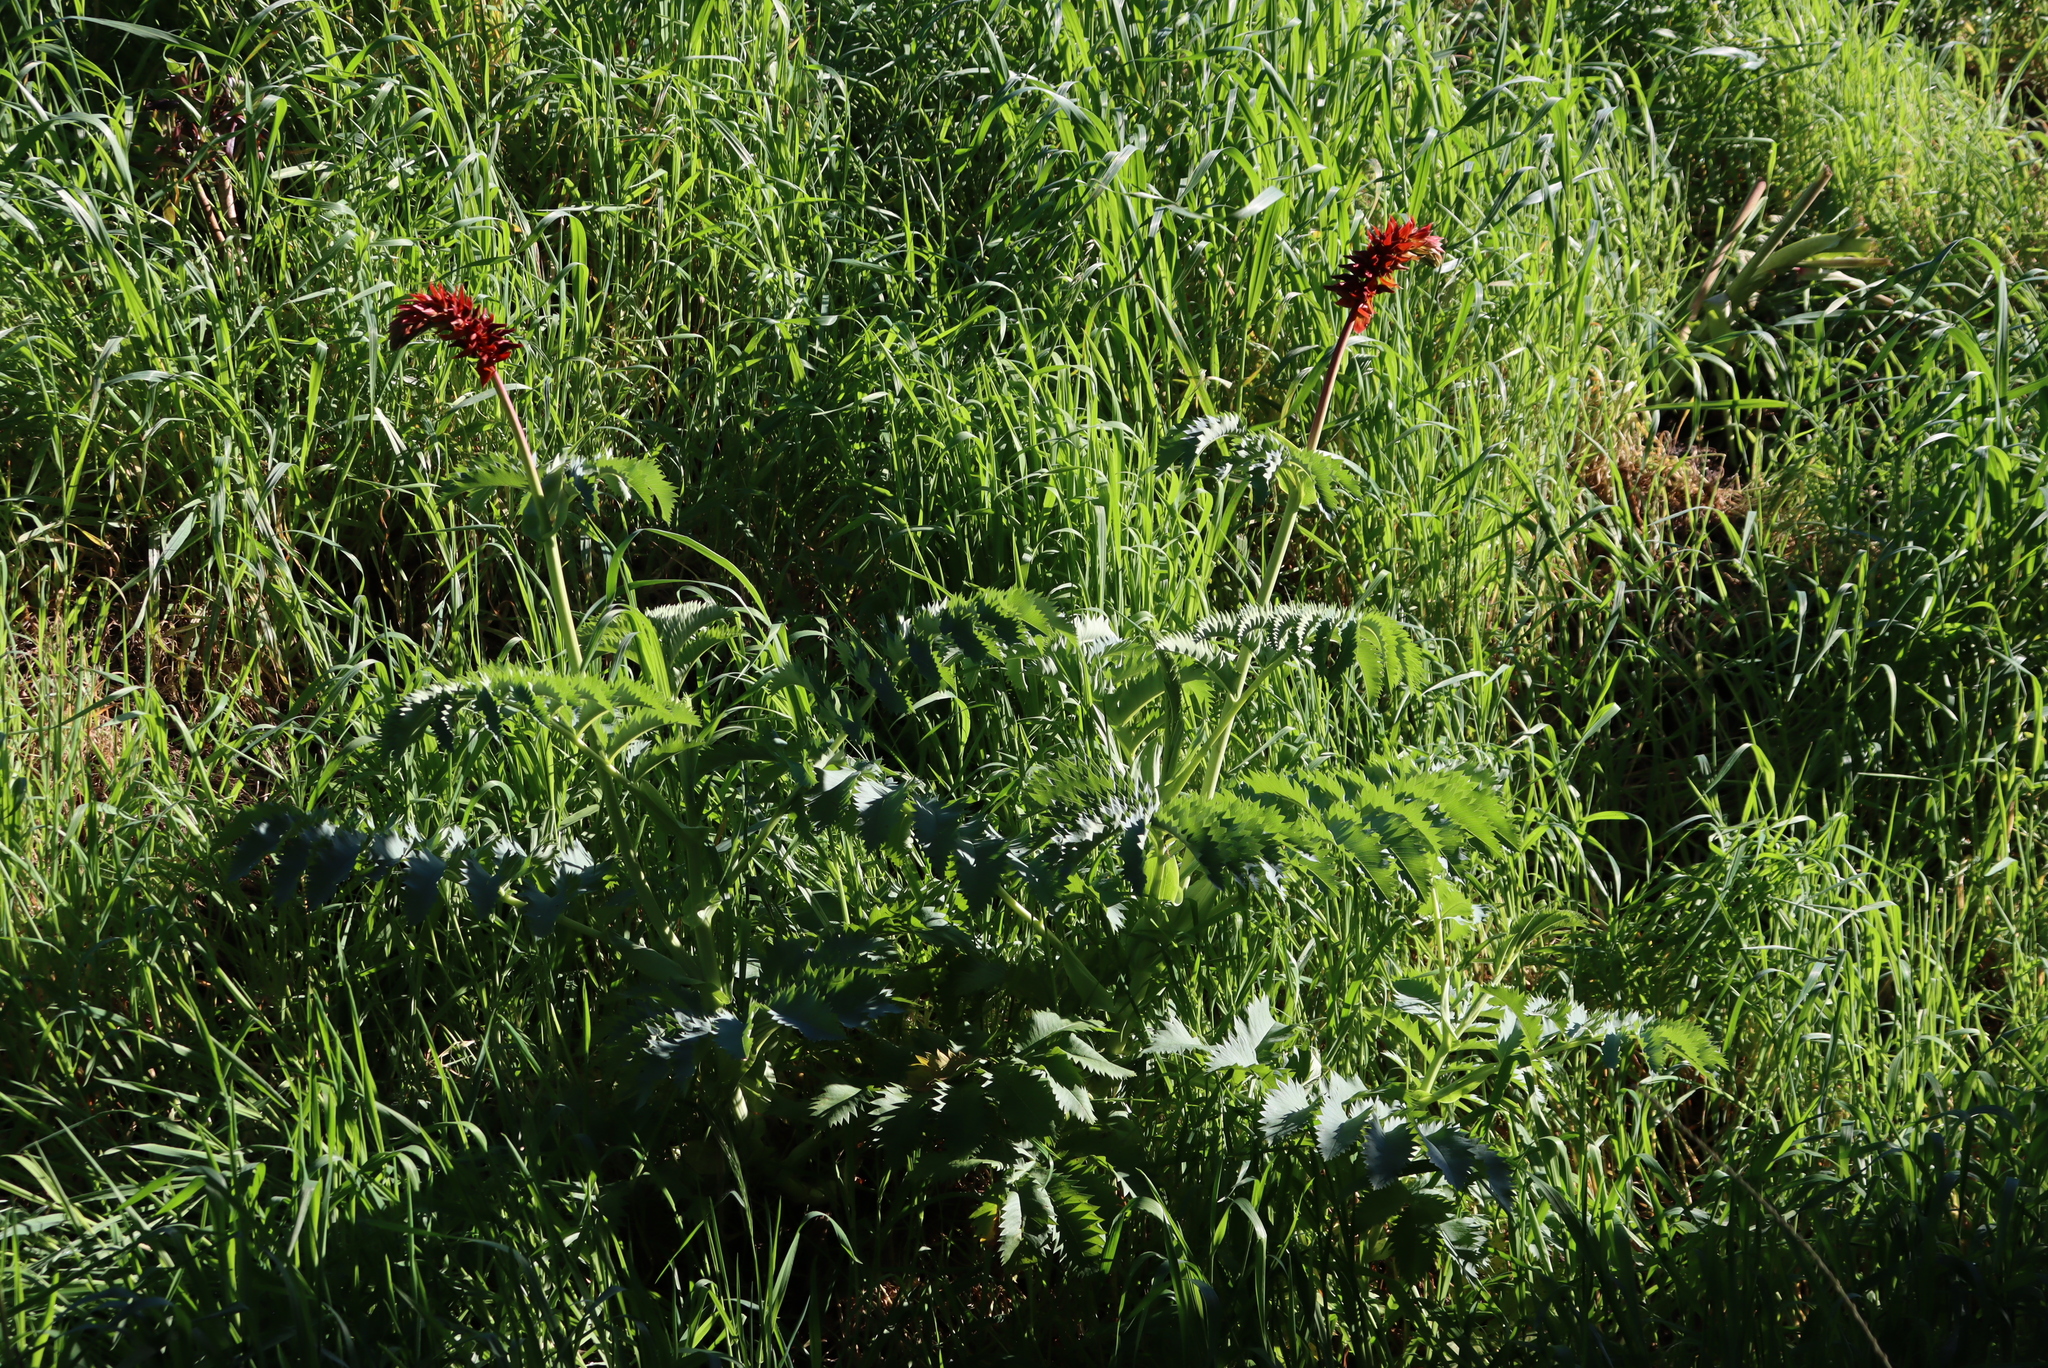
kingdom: Plantae
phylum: Tracheophyta
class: Magnoliopsida
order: Geraniales
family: Melianthaceae
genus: Melianthus
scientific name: Melianthus major
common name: Honey-flower
